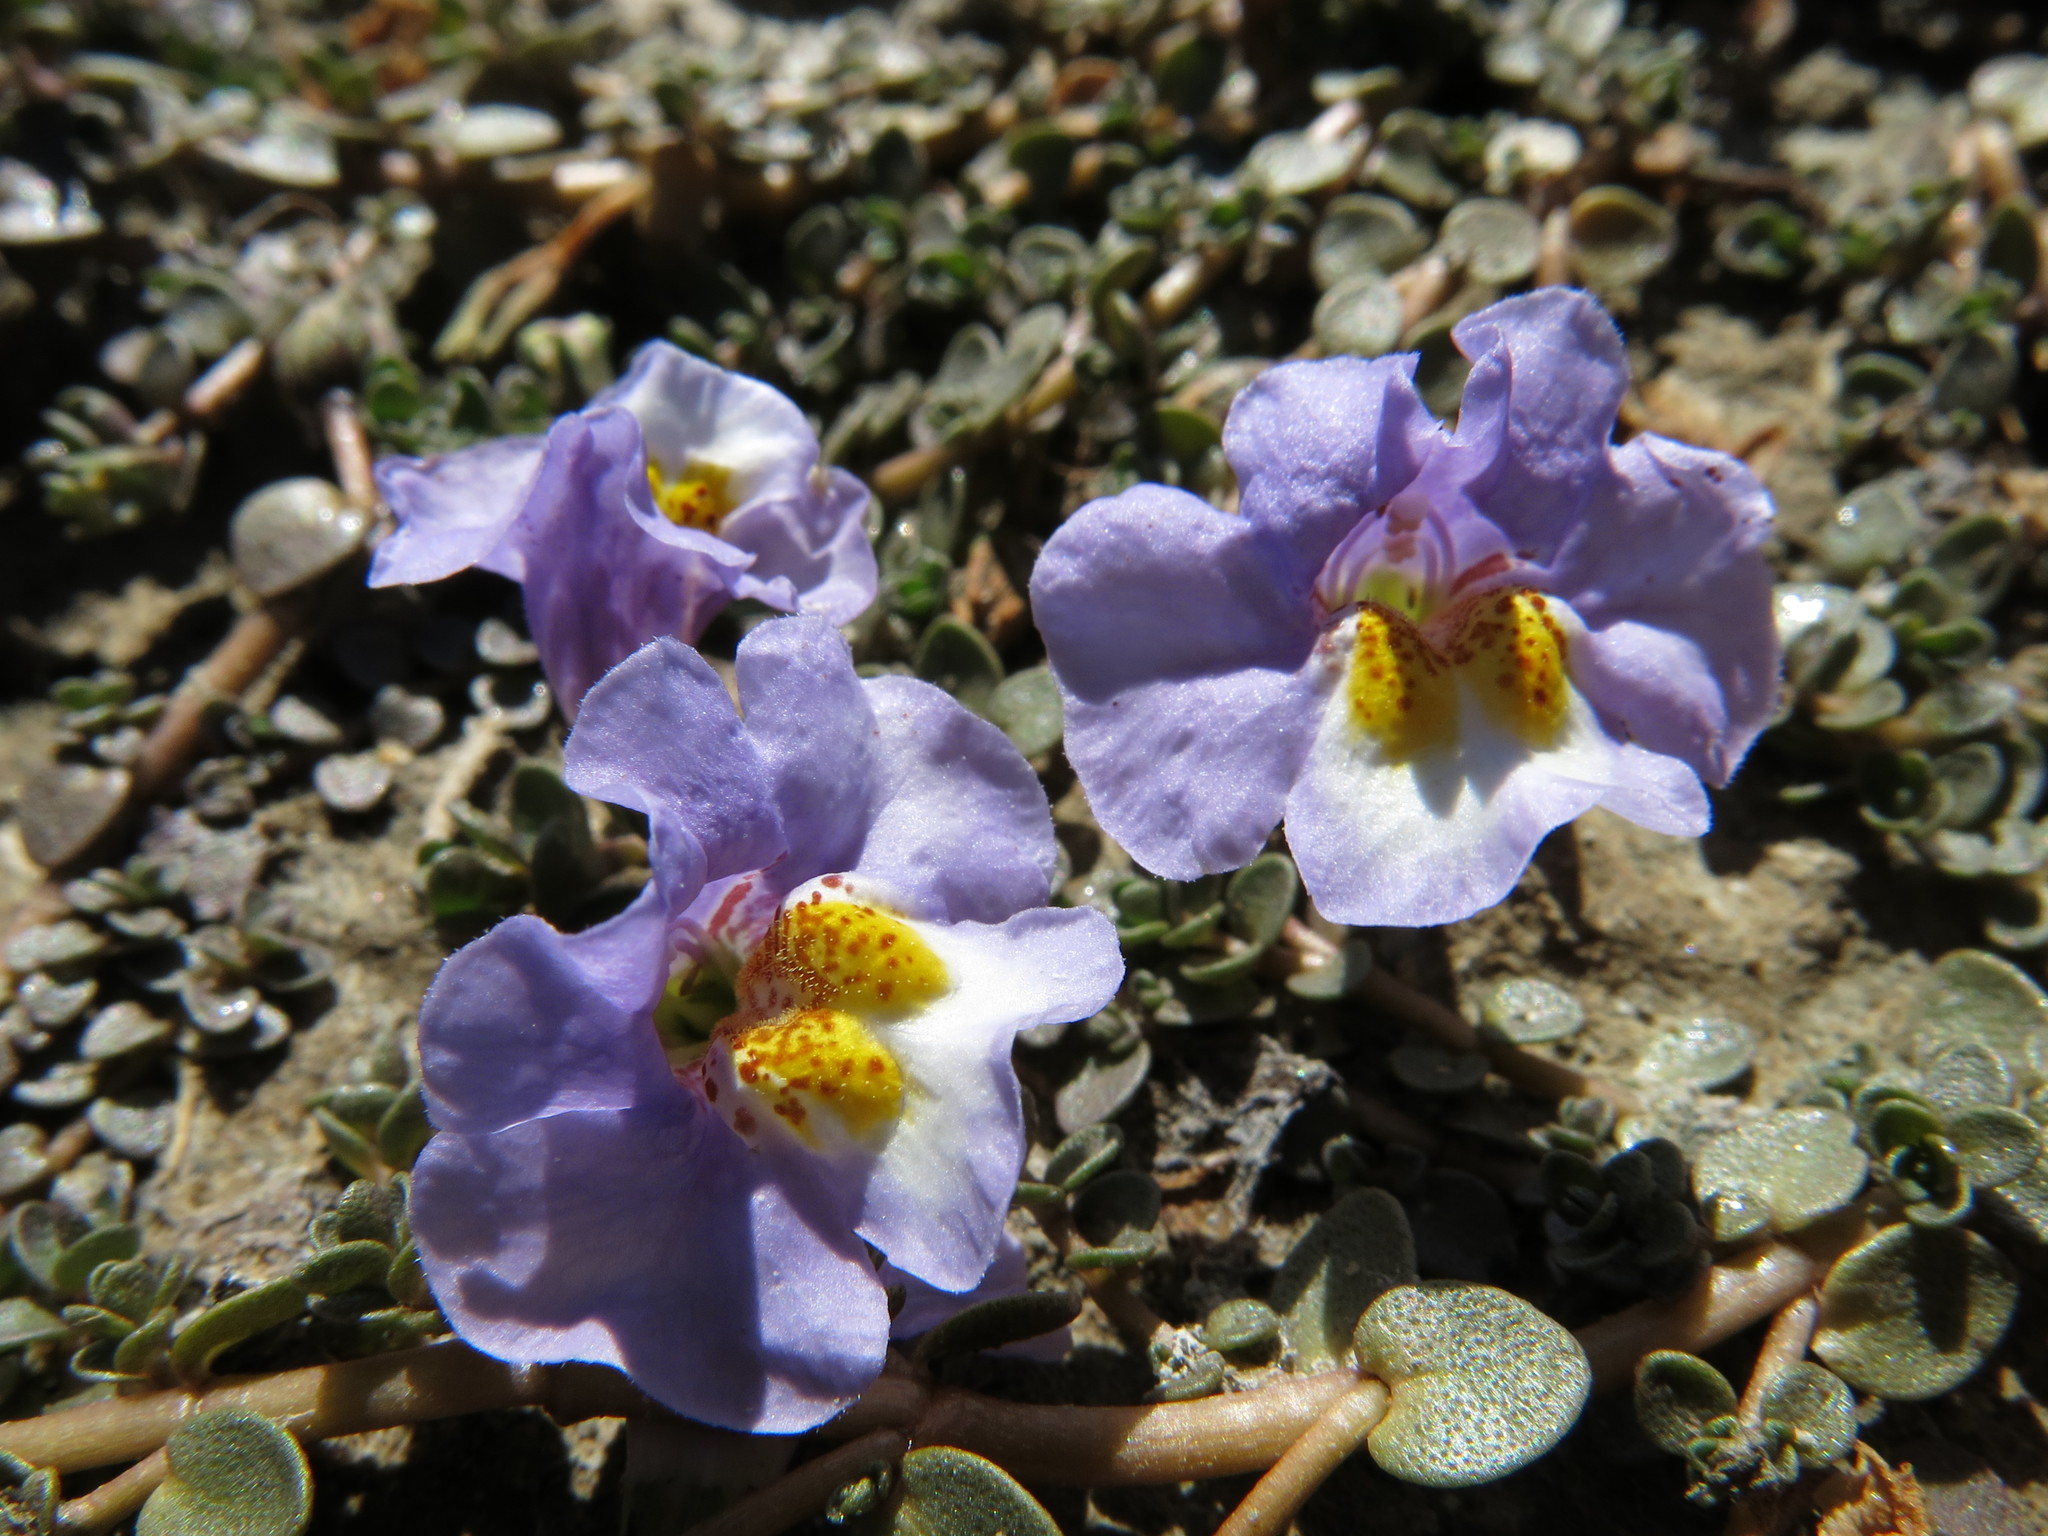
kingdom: Plantae
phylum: Tracheophyta
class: Magnoliopsida
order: Lamiales
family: Phrymaceae
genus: Thyridia
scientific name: Thyridia repens
